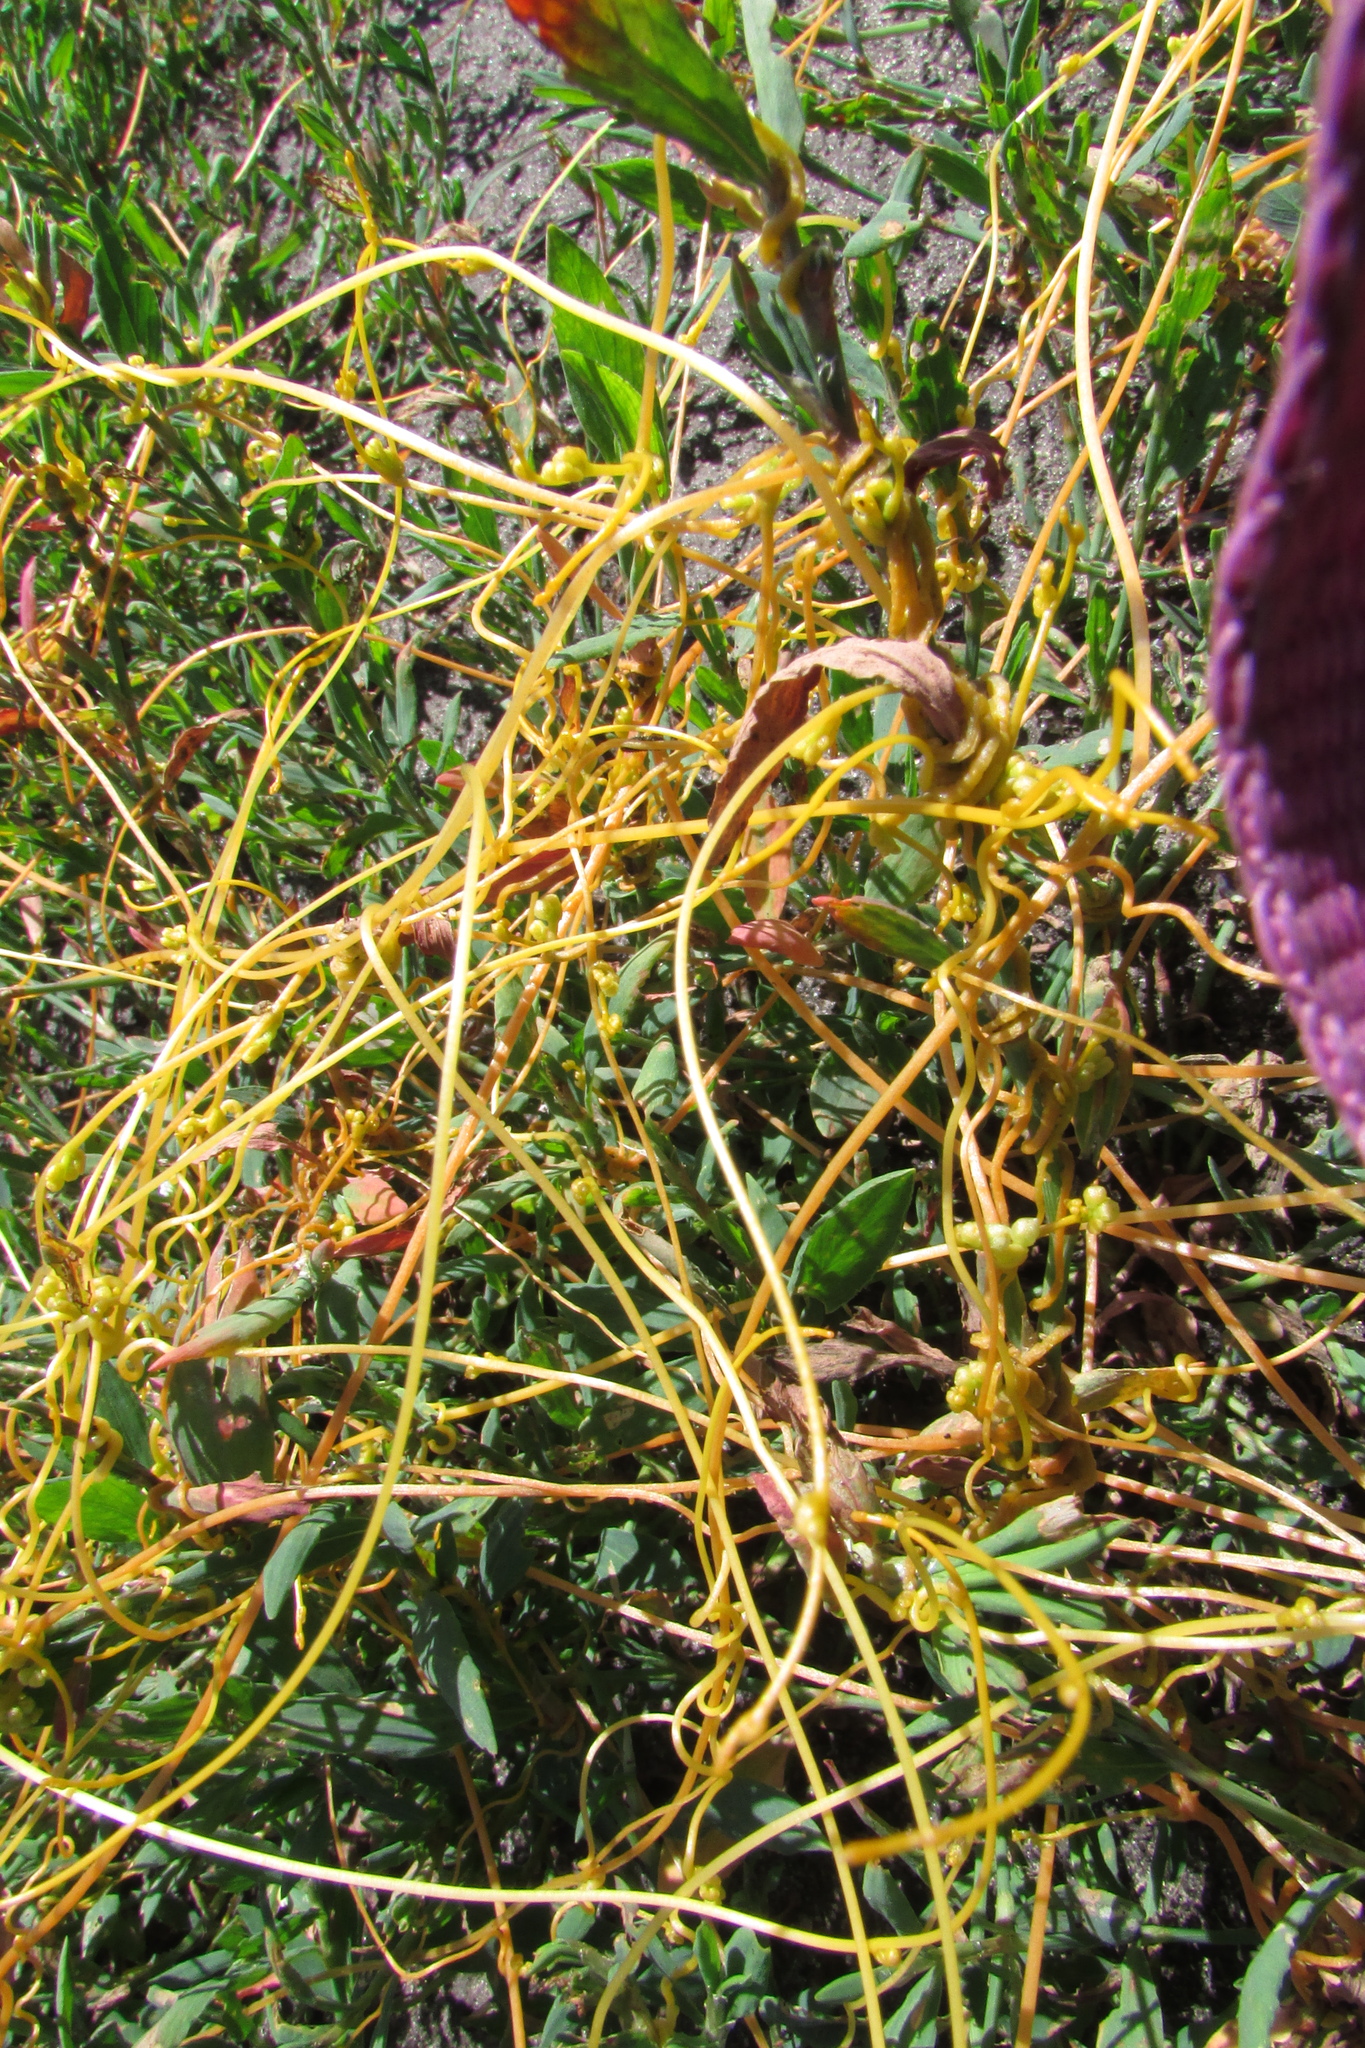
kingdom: Plantae
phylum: Tracheophyta
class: Magnoliopsida
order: Solanales
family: Convolvulaceae
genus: Cuscuta
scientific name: Cuscuta campestris
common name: Yellow dodder
